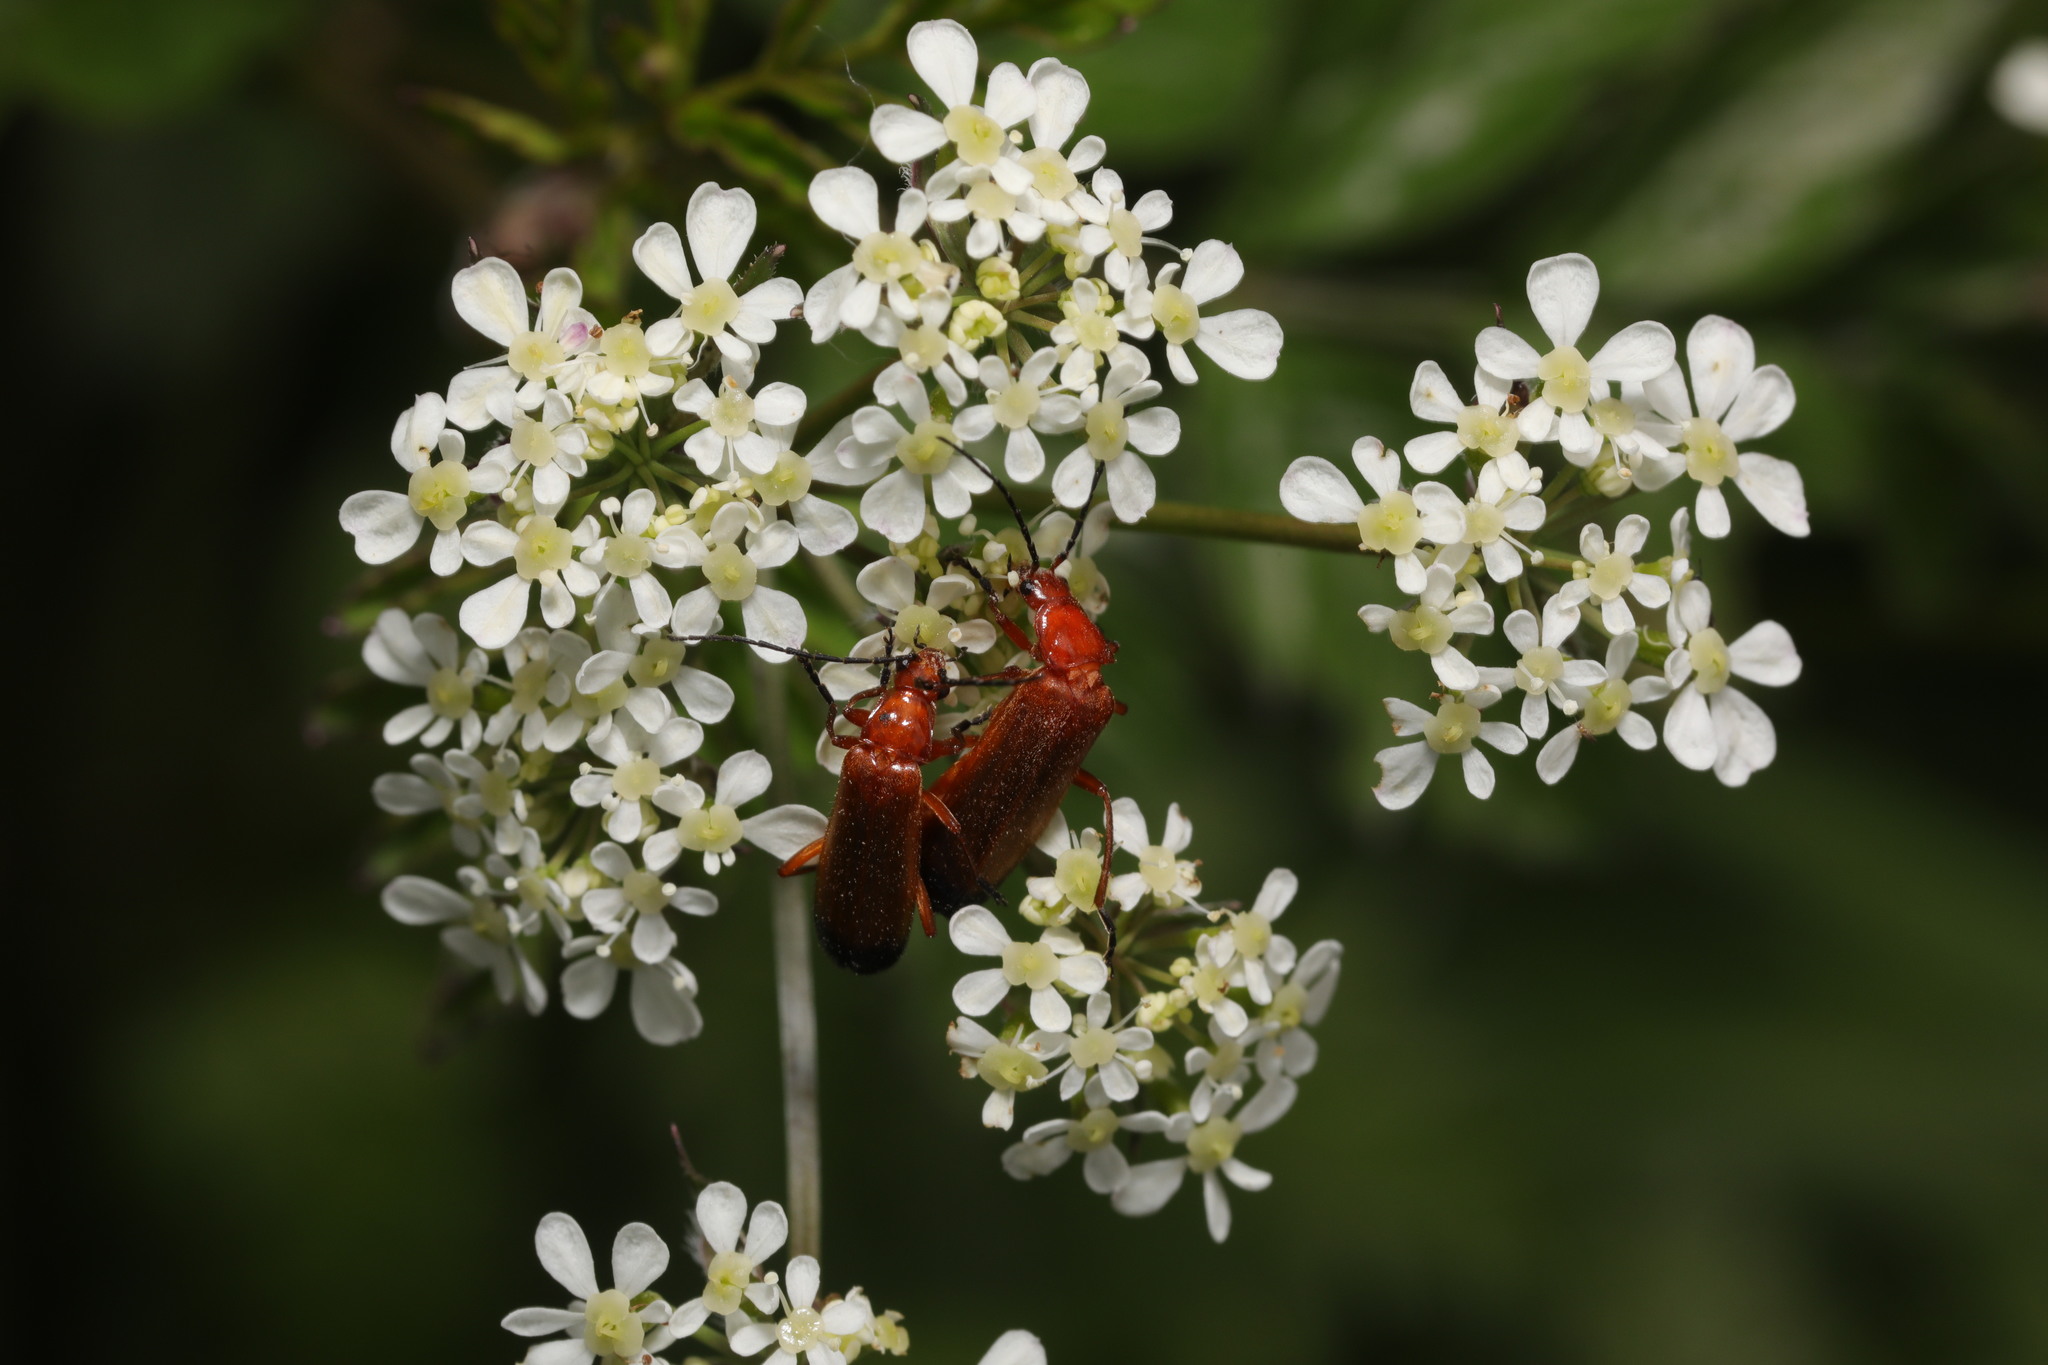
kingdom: Animalia
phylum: Arthropoda
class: Insecta
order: Coleoptera
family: Cantharidae
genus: Rhagonycha
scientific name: Rhagonycha fulva
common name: Common red soldier beetle
